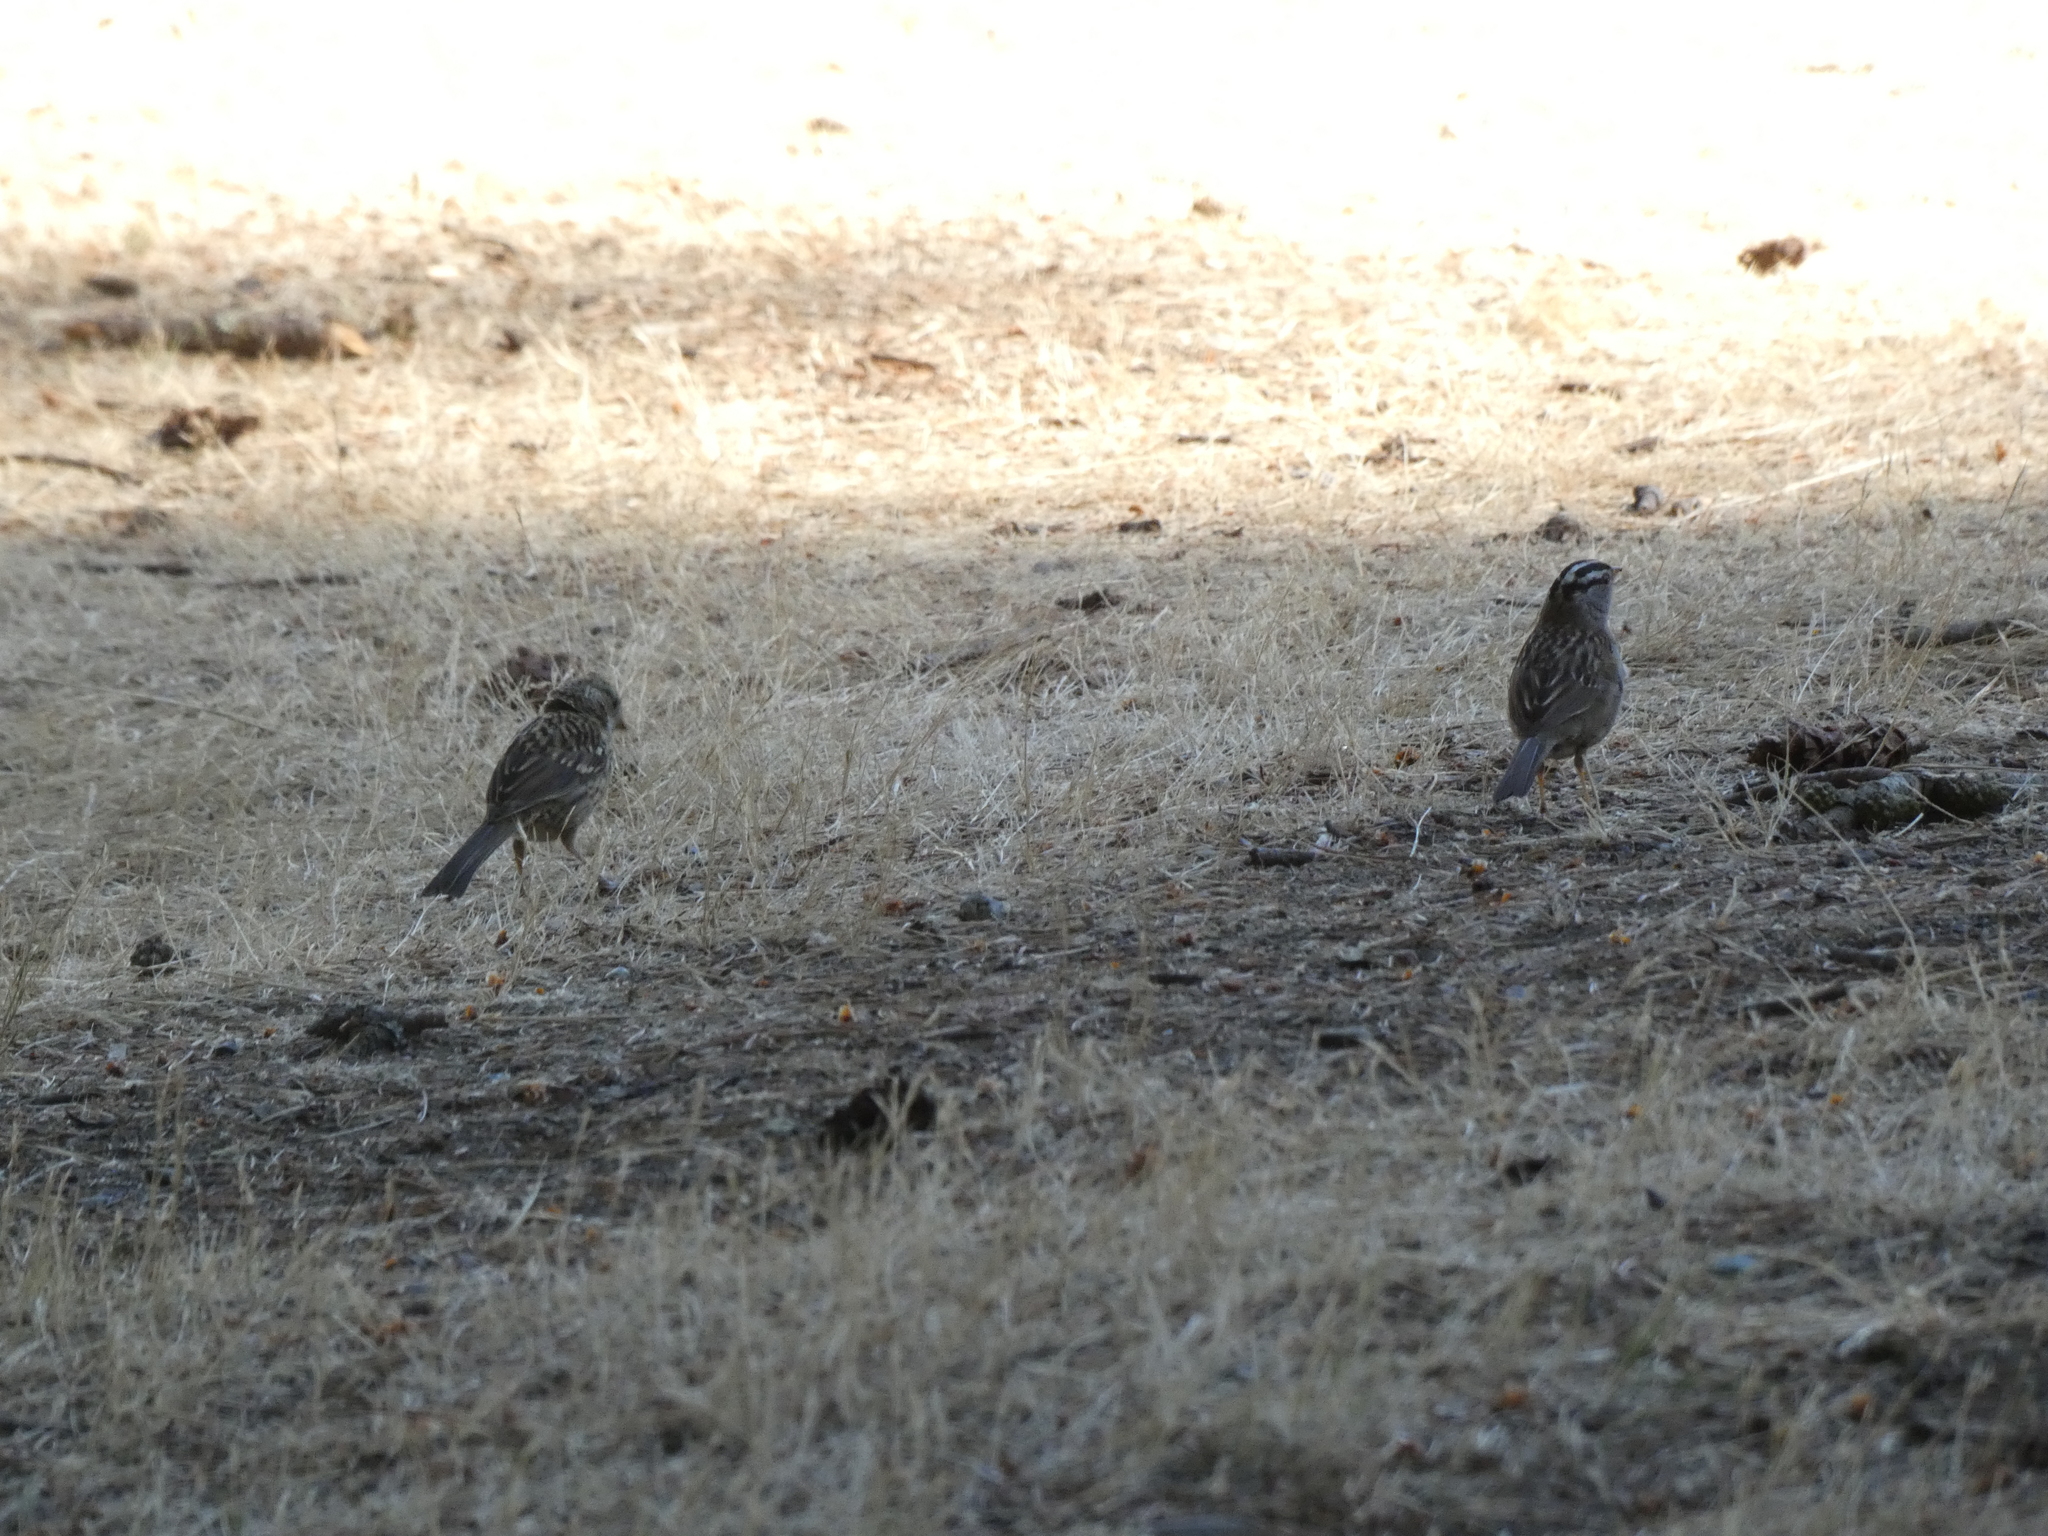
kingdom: Animalia
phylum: Chordata
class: Aves
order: Passeriformes
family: Passerellidae
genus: Zonotrichia
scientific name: Zonotrichia leucophrys
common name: White-crowned sparrow
